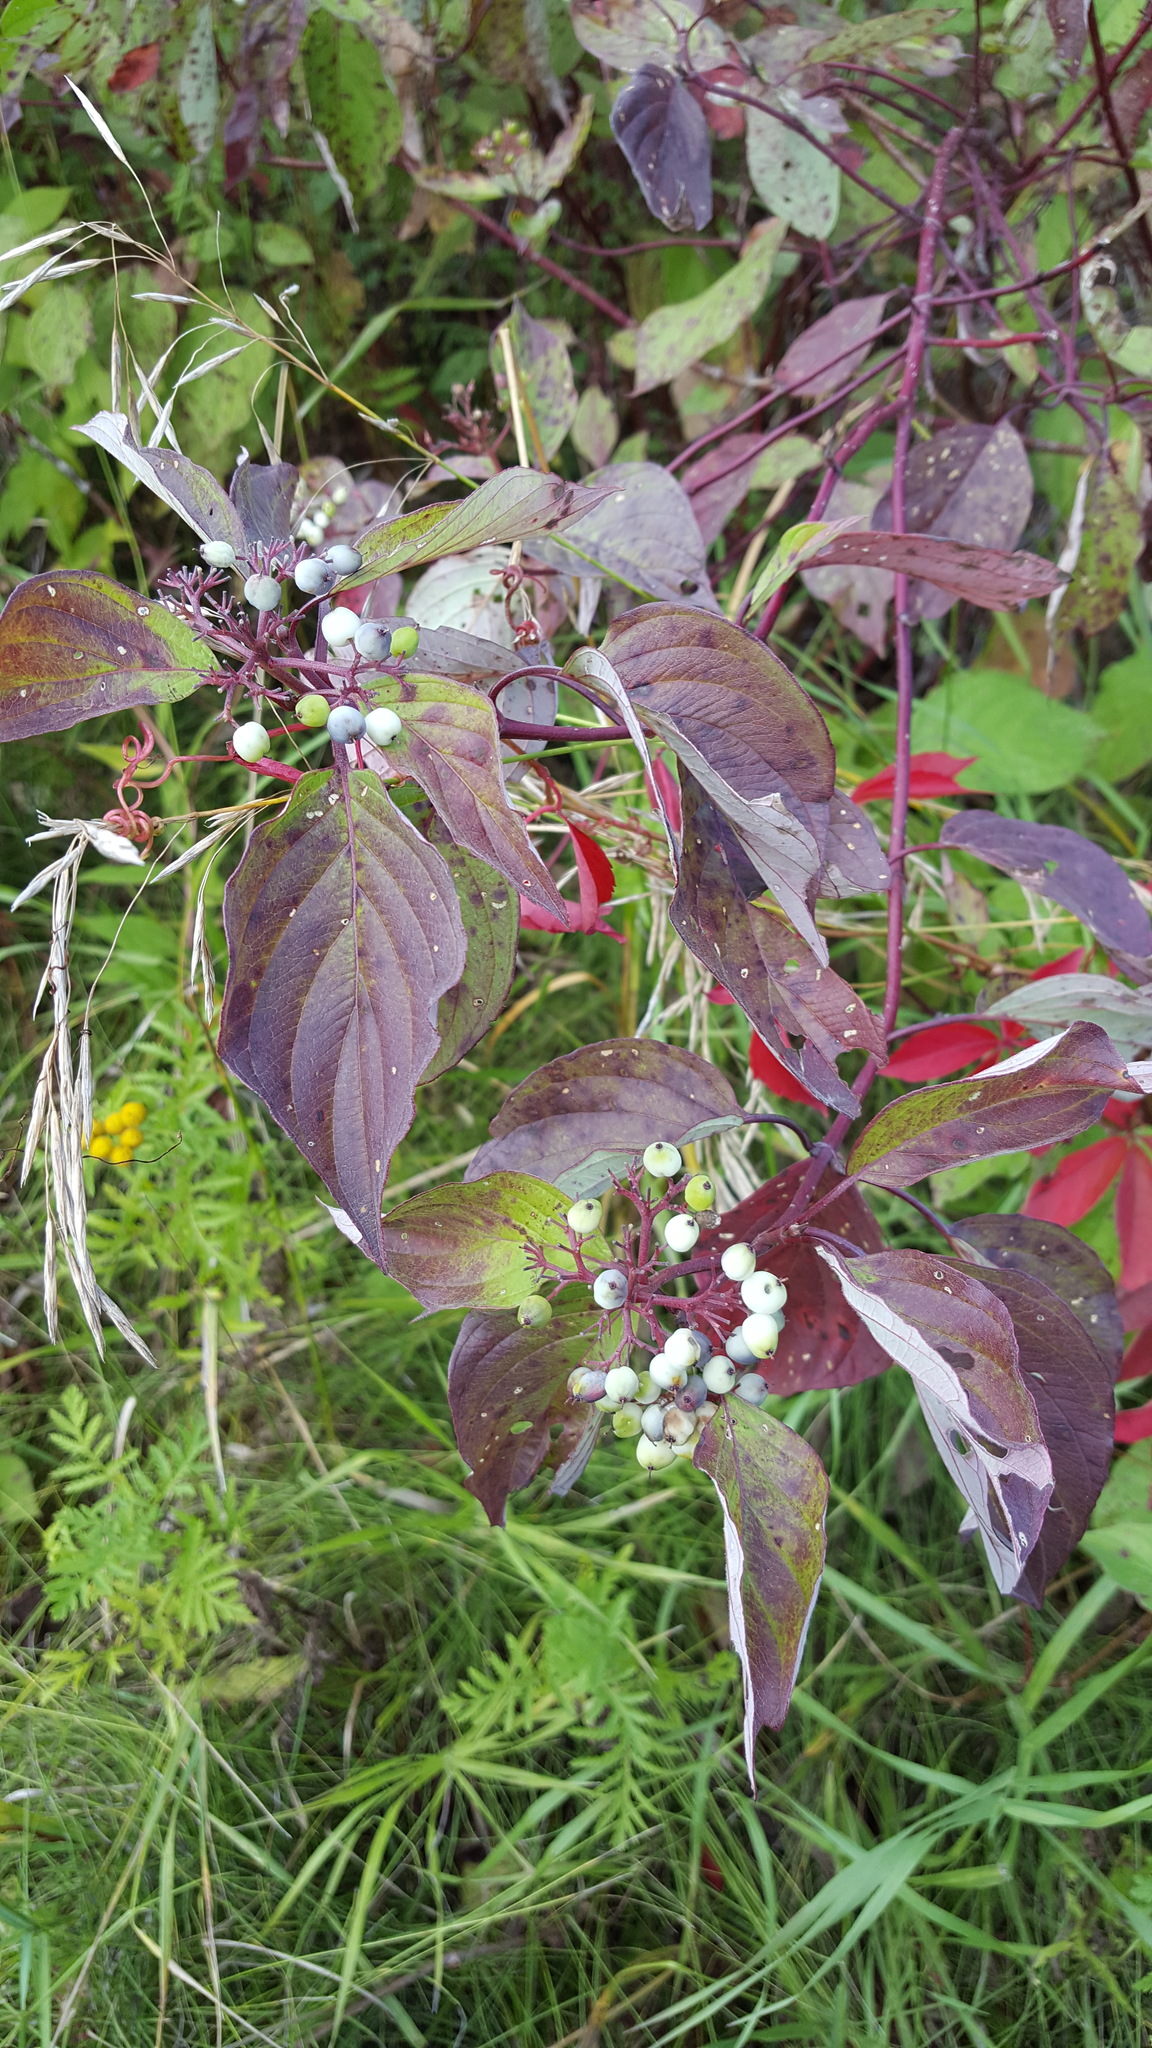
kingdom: Plantae
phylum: Tracheophyta
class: Magnoliopsida
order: Cornales
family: Cornaceae
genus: Cornus
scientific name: Cornus sericea
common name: Red-osier dogwood
